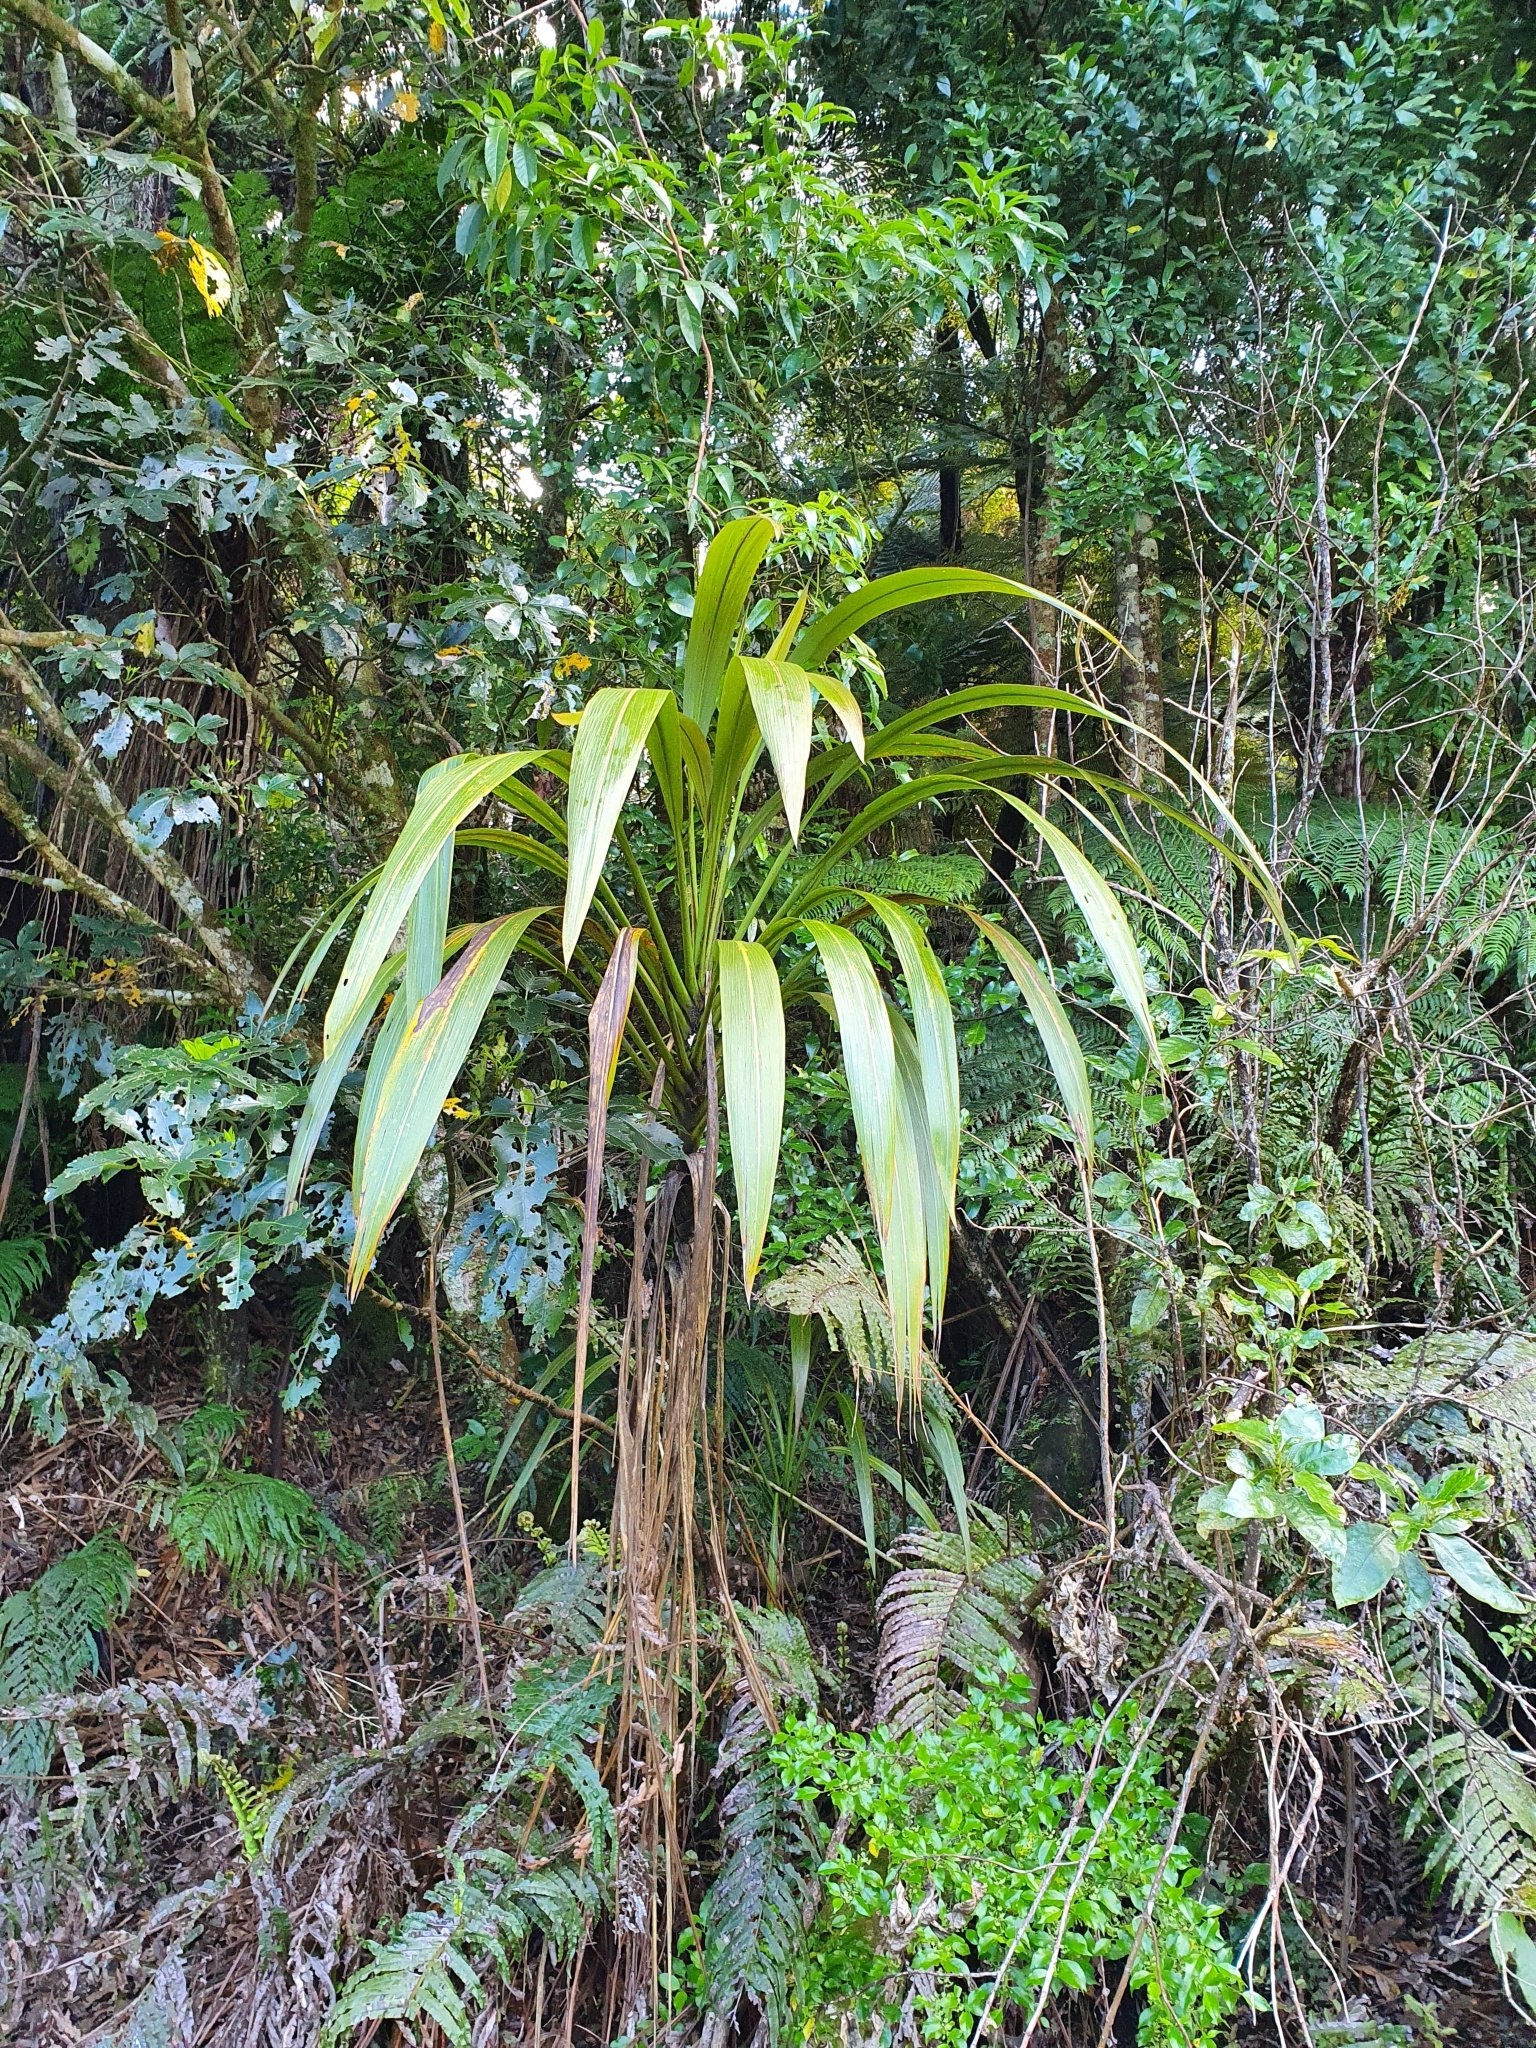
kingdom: Plantae
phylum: Tracheophyta
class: Liliopsida
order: Asparagales
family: Asparagaceae
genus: Cordyline
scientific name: Cordyline banksii
